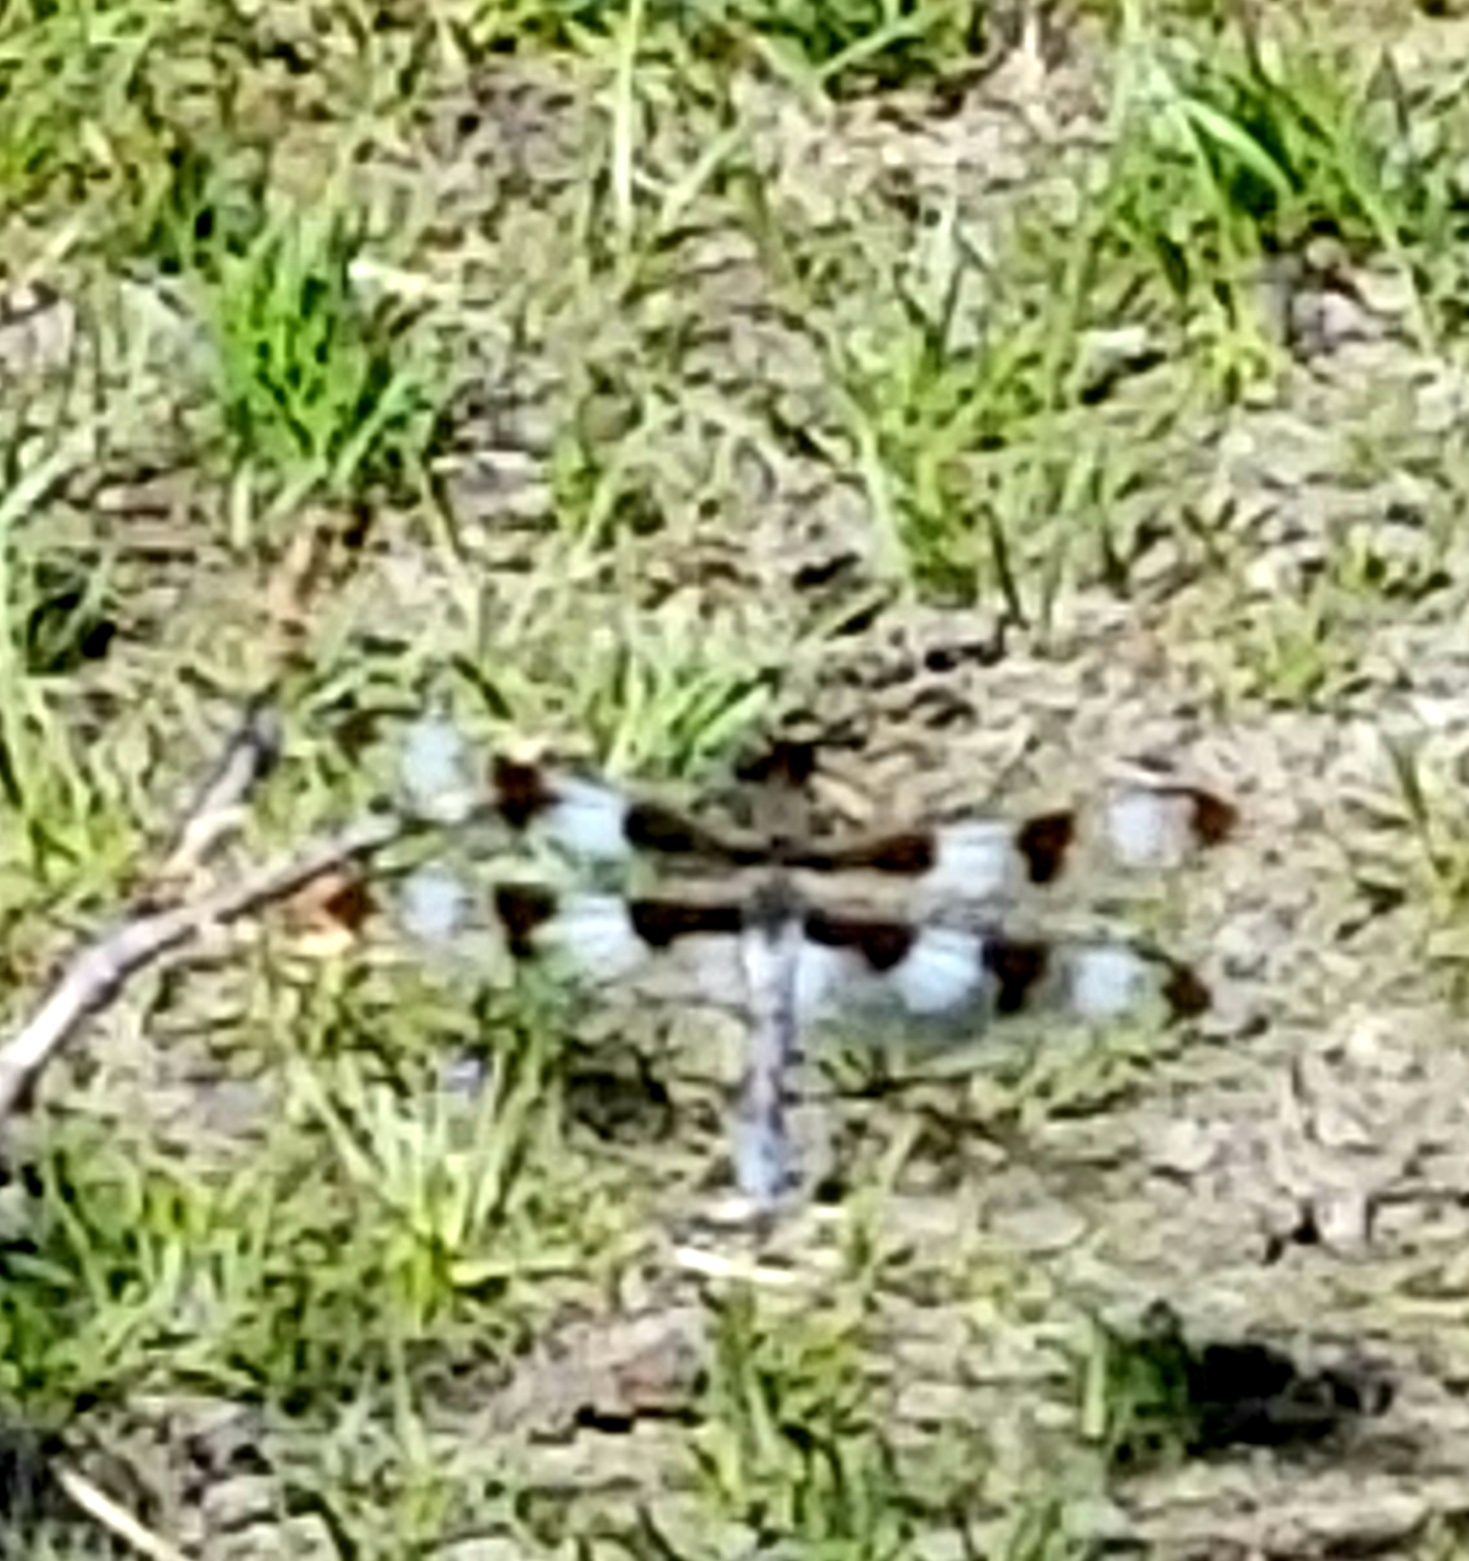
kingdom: Animalia
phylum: Arthropoda
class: Insecta
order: Odonata
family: Libellulidae
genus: Libellula
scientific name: Libellula pulchella
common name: Twelve-spotted skimmer
